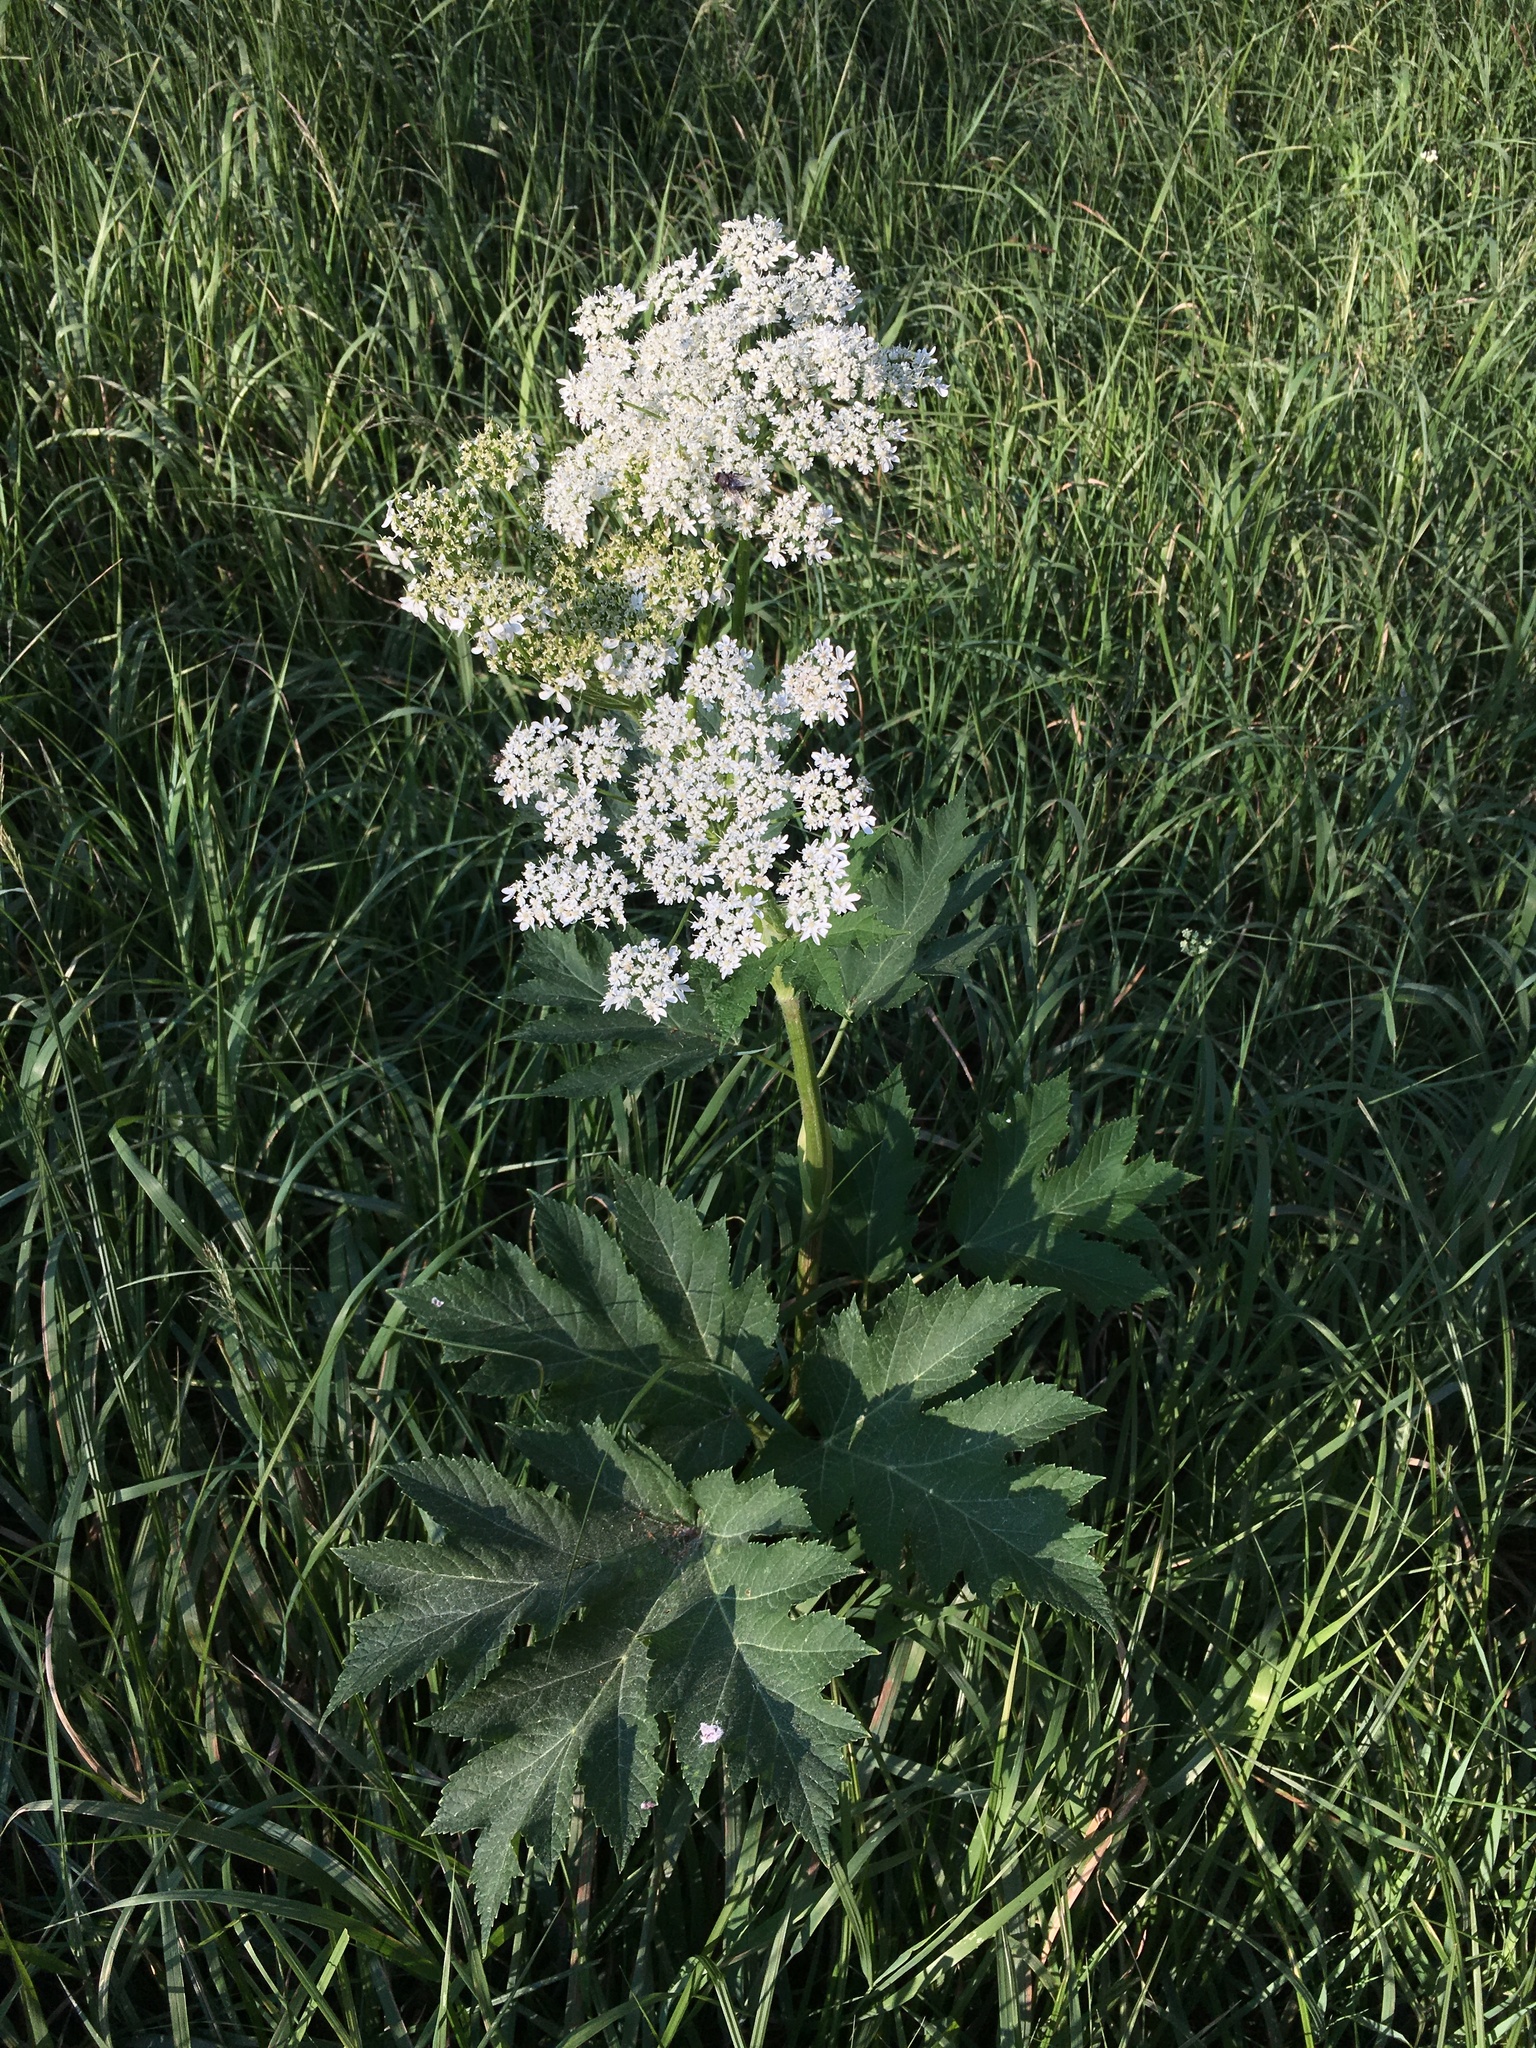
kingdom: Plantae
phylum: Tracheophyta
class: Magnoliopsida
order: Apiales
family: Apiaceae
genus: Heracleum
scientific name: Heracleum maximum
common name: American cow parsnip
